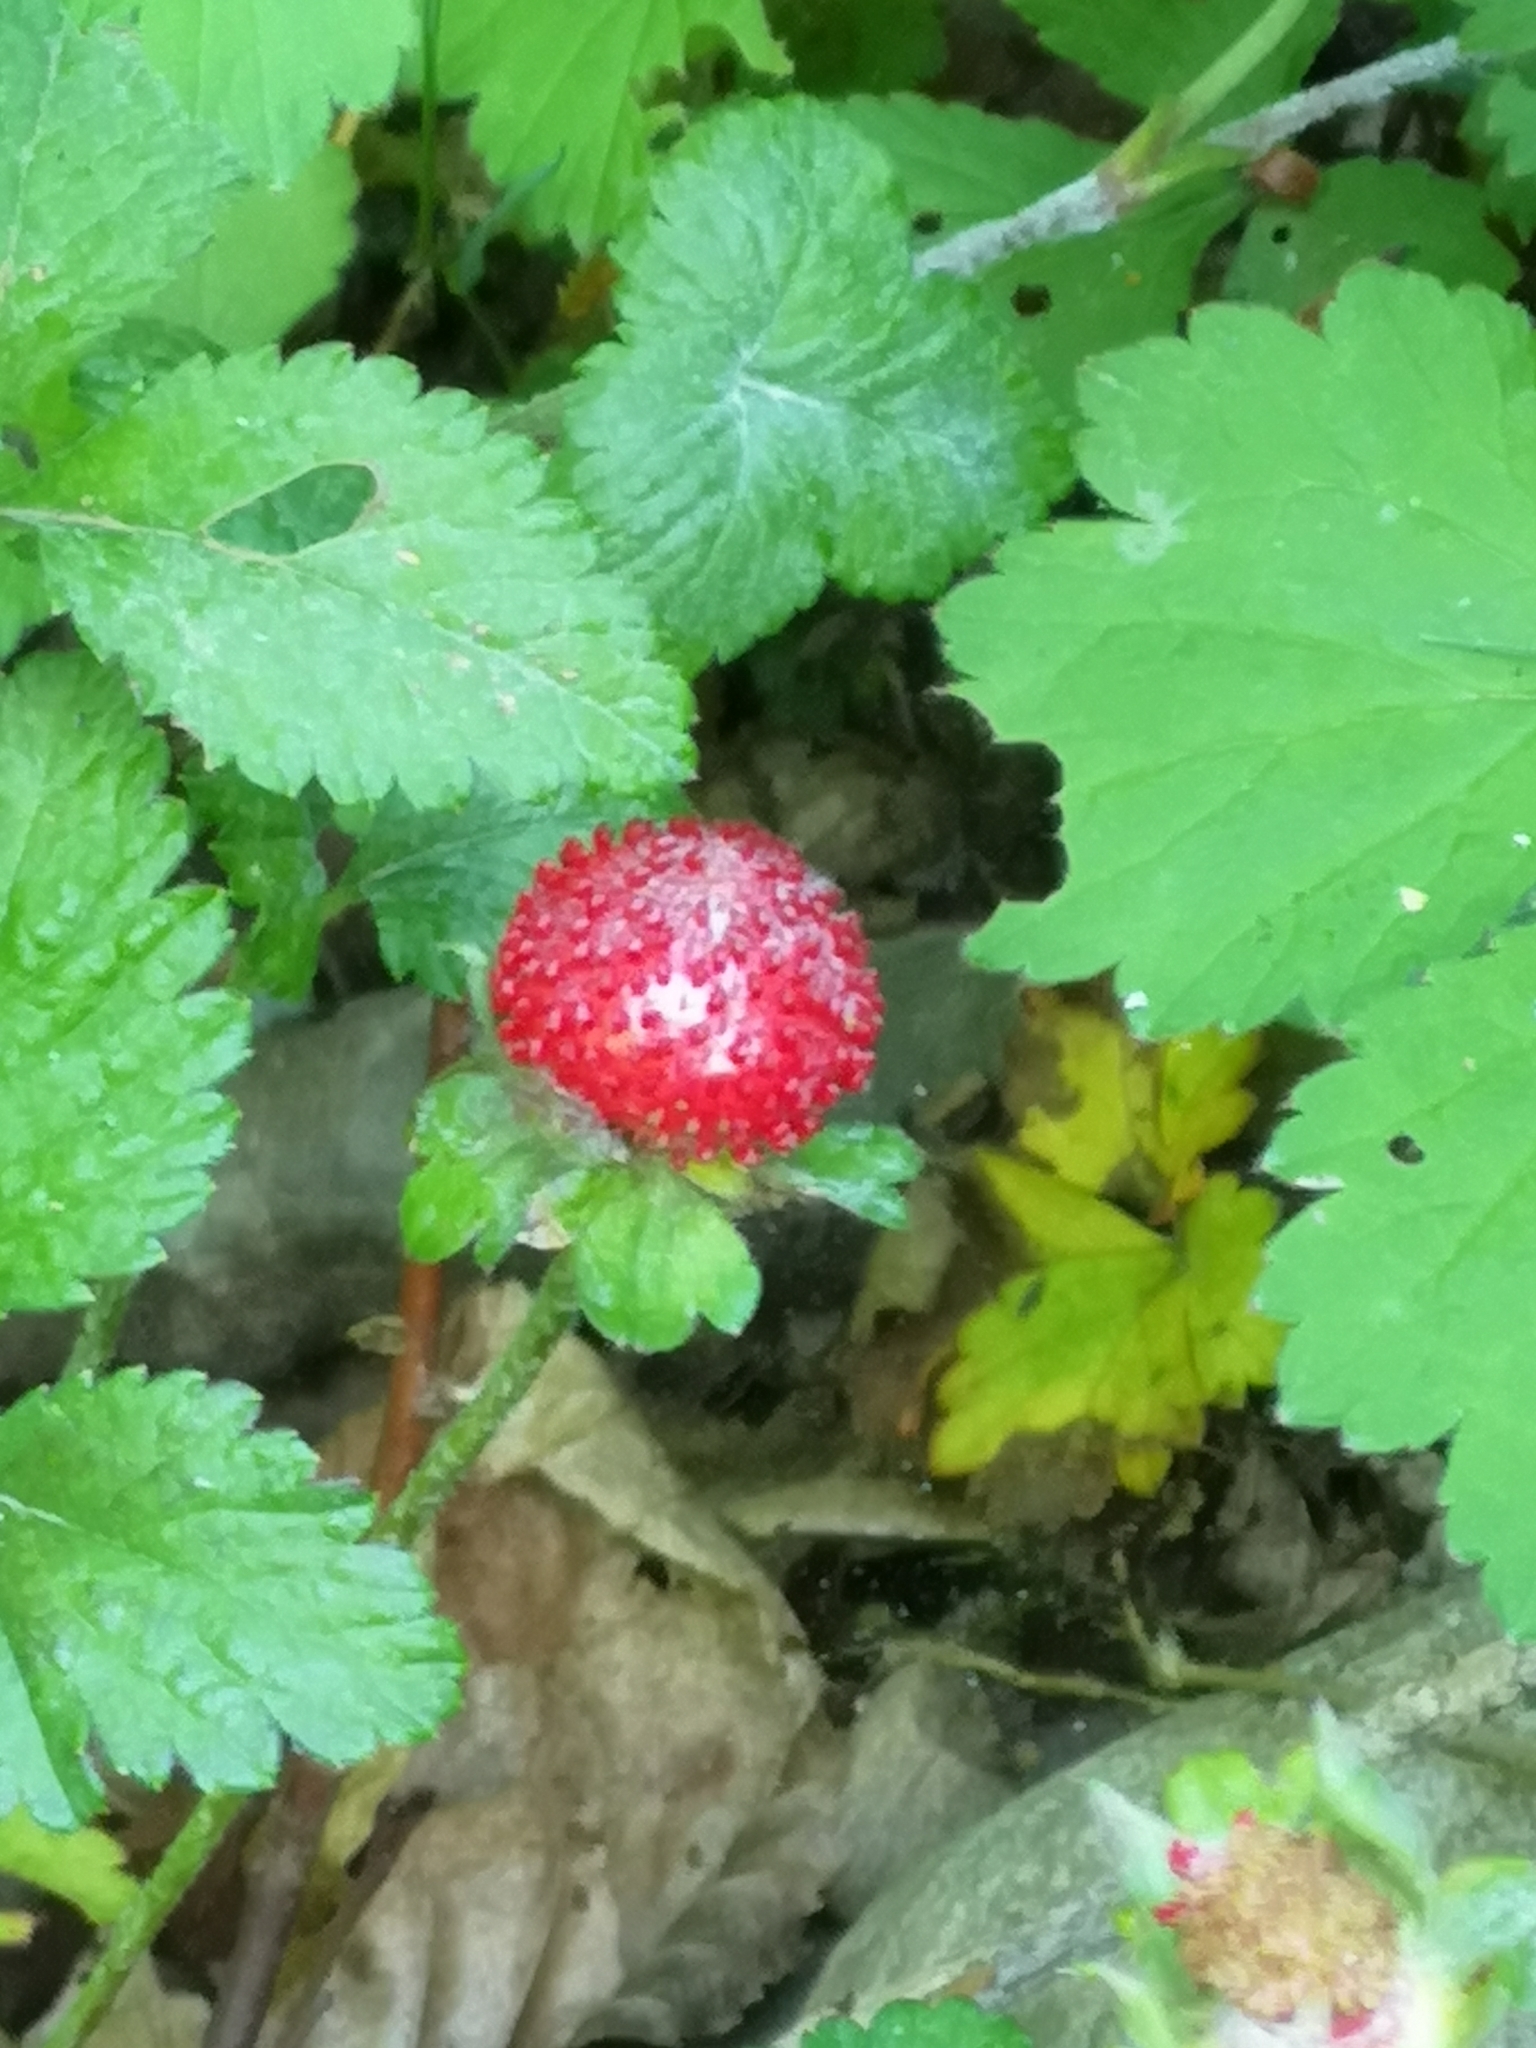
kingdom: Plantae
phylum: Tracheophyta
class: Magnoliopsida
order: Rosales
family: Rosaceae
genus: Potentilla
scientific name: Potentilla indica
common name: Yellow-flowered strawberry
